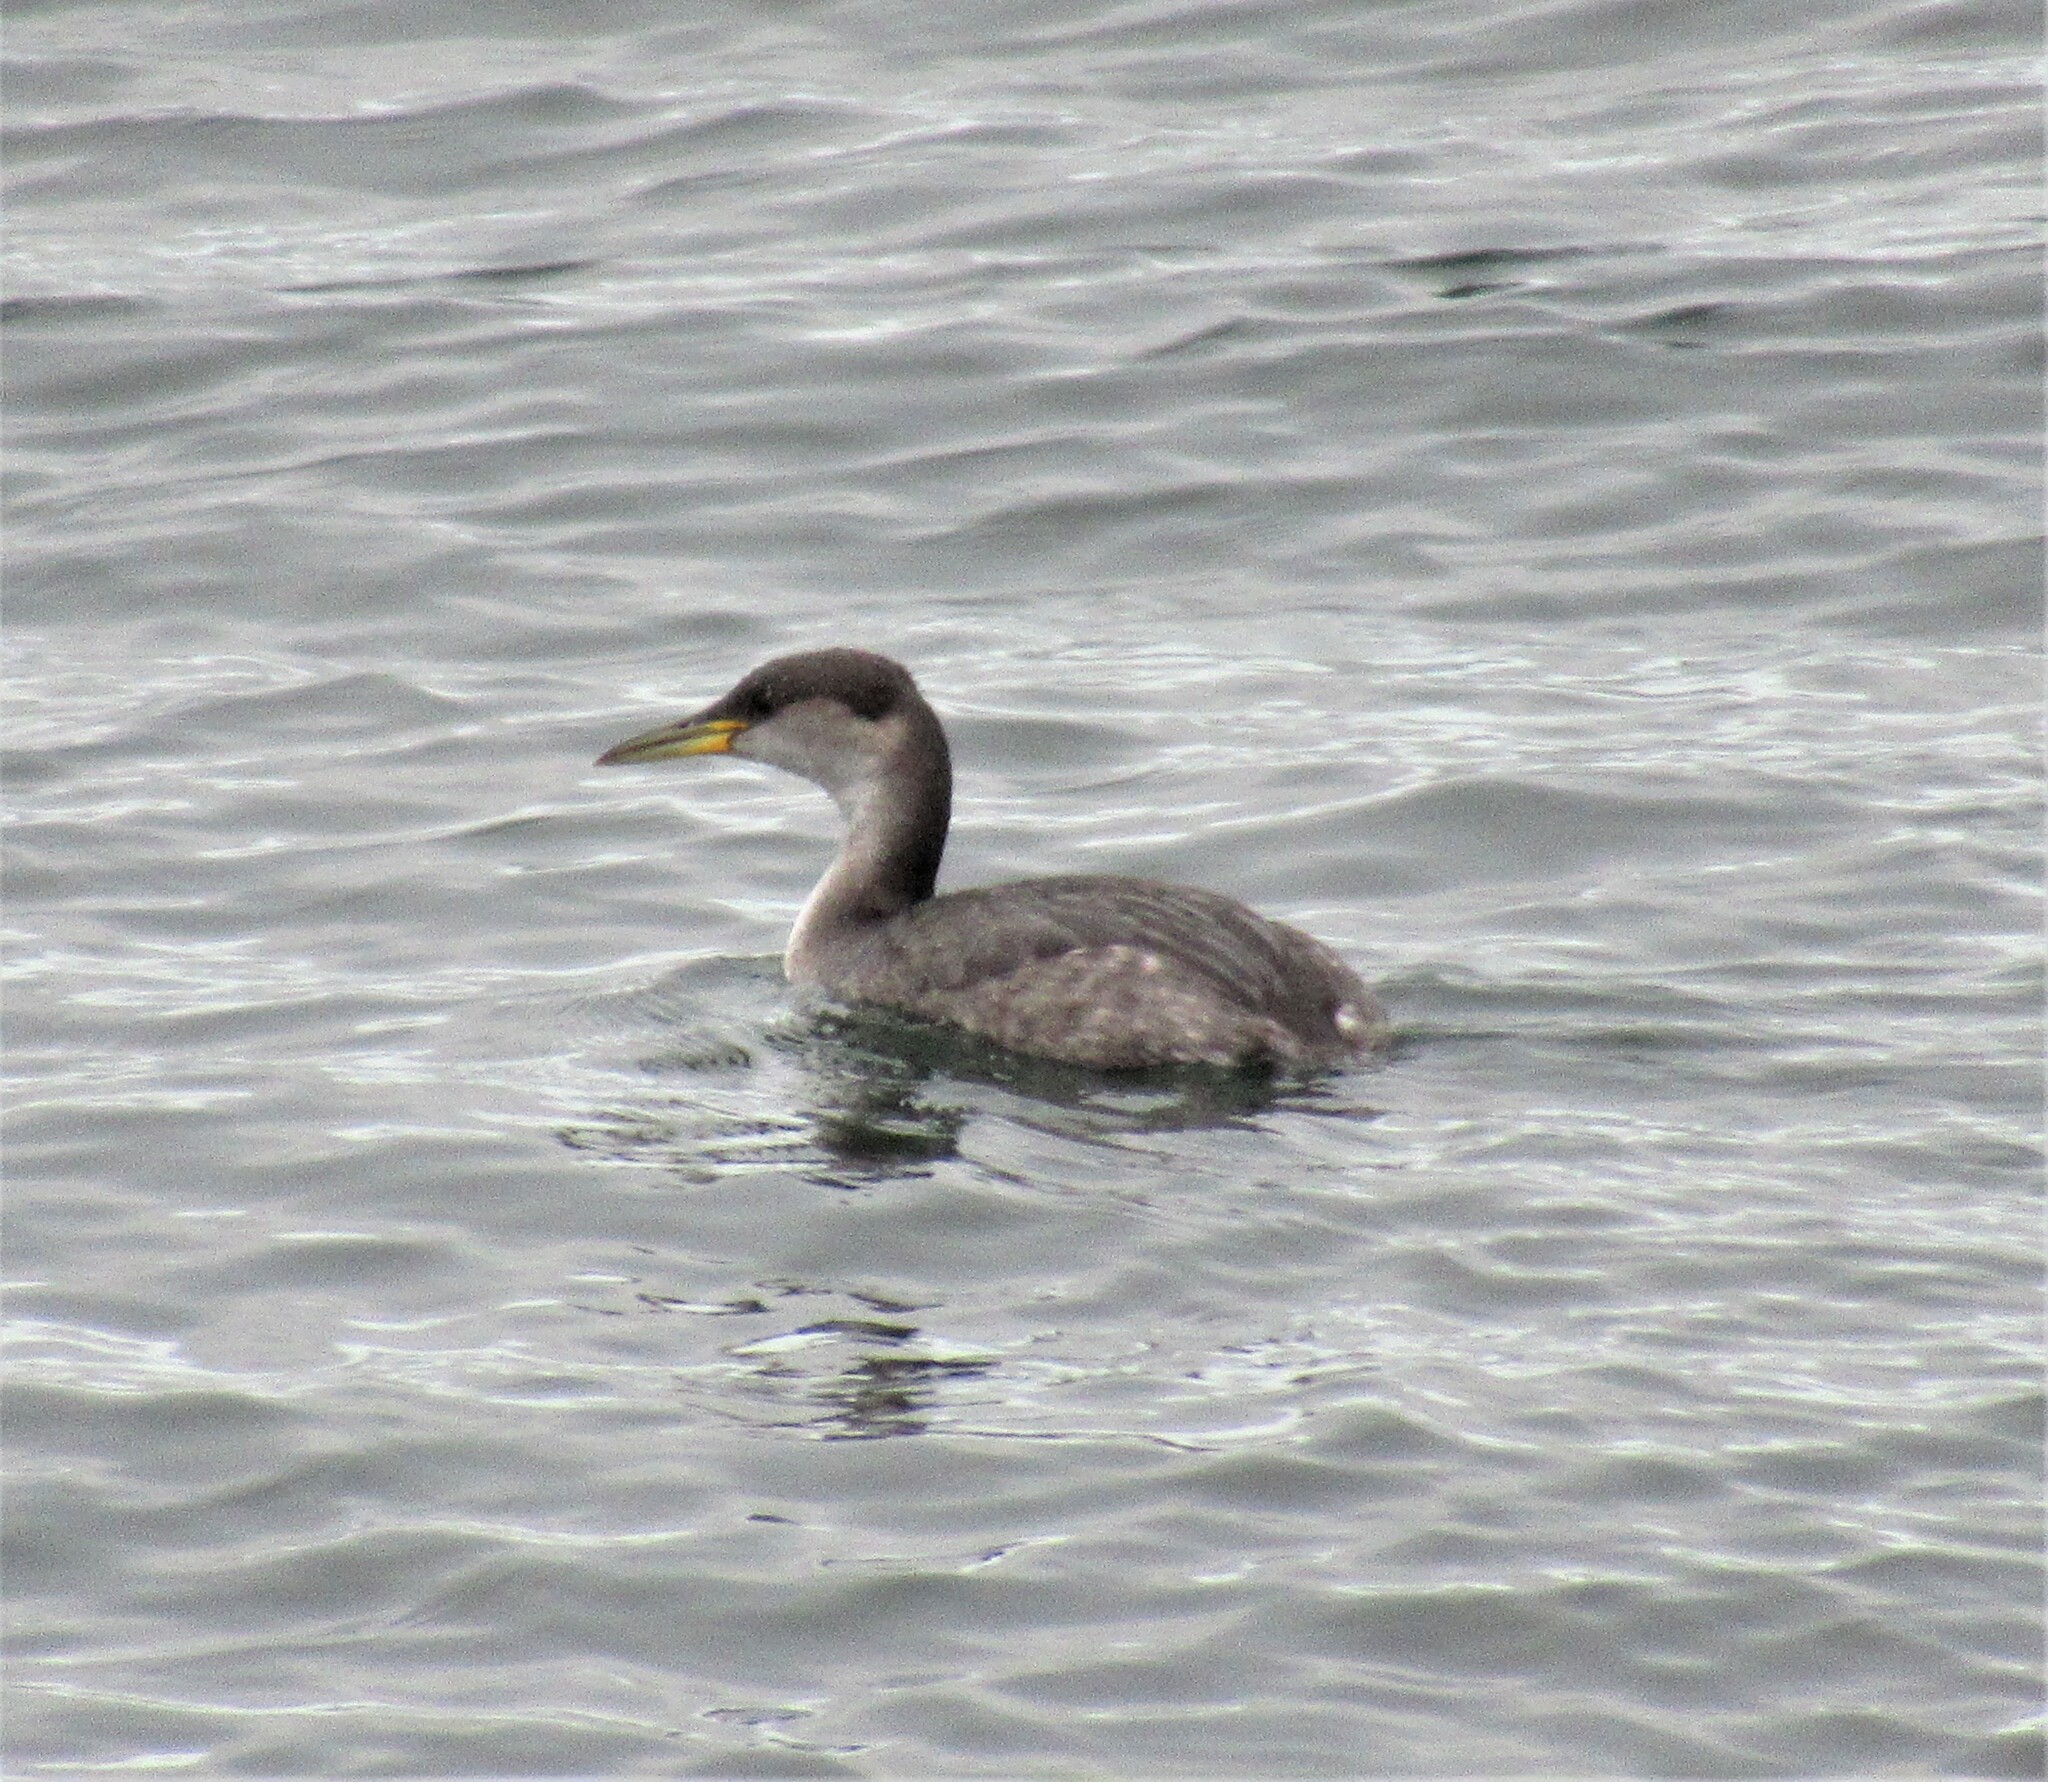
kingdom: Animalia
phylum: Chordata
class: Aves
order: Podicipediformes
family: Podicipedidae
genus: Podiceps
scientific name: Podiceps grisegena
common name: Red-necked grebe
